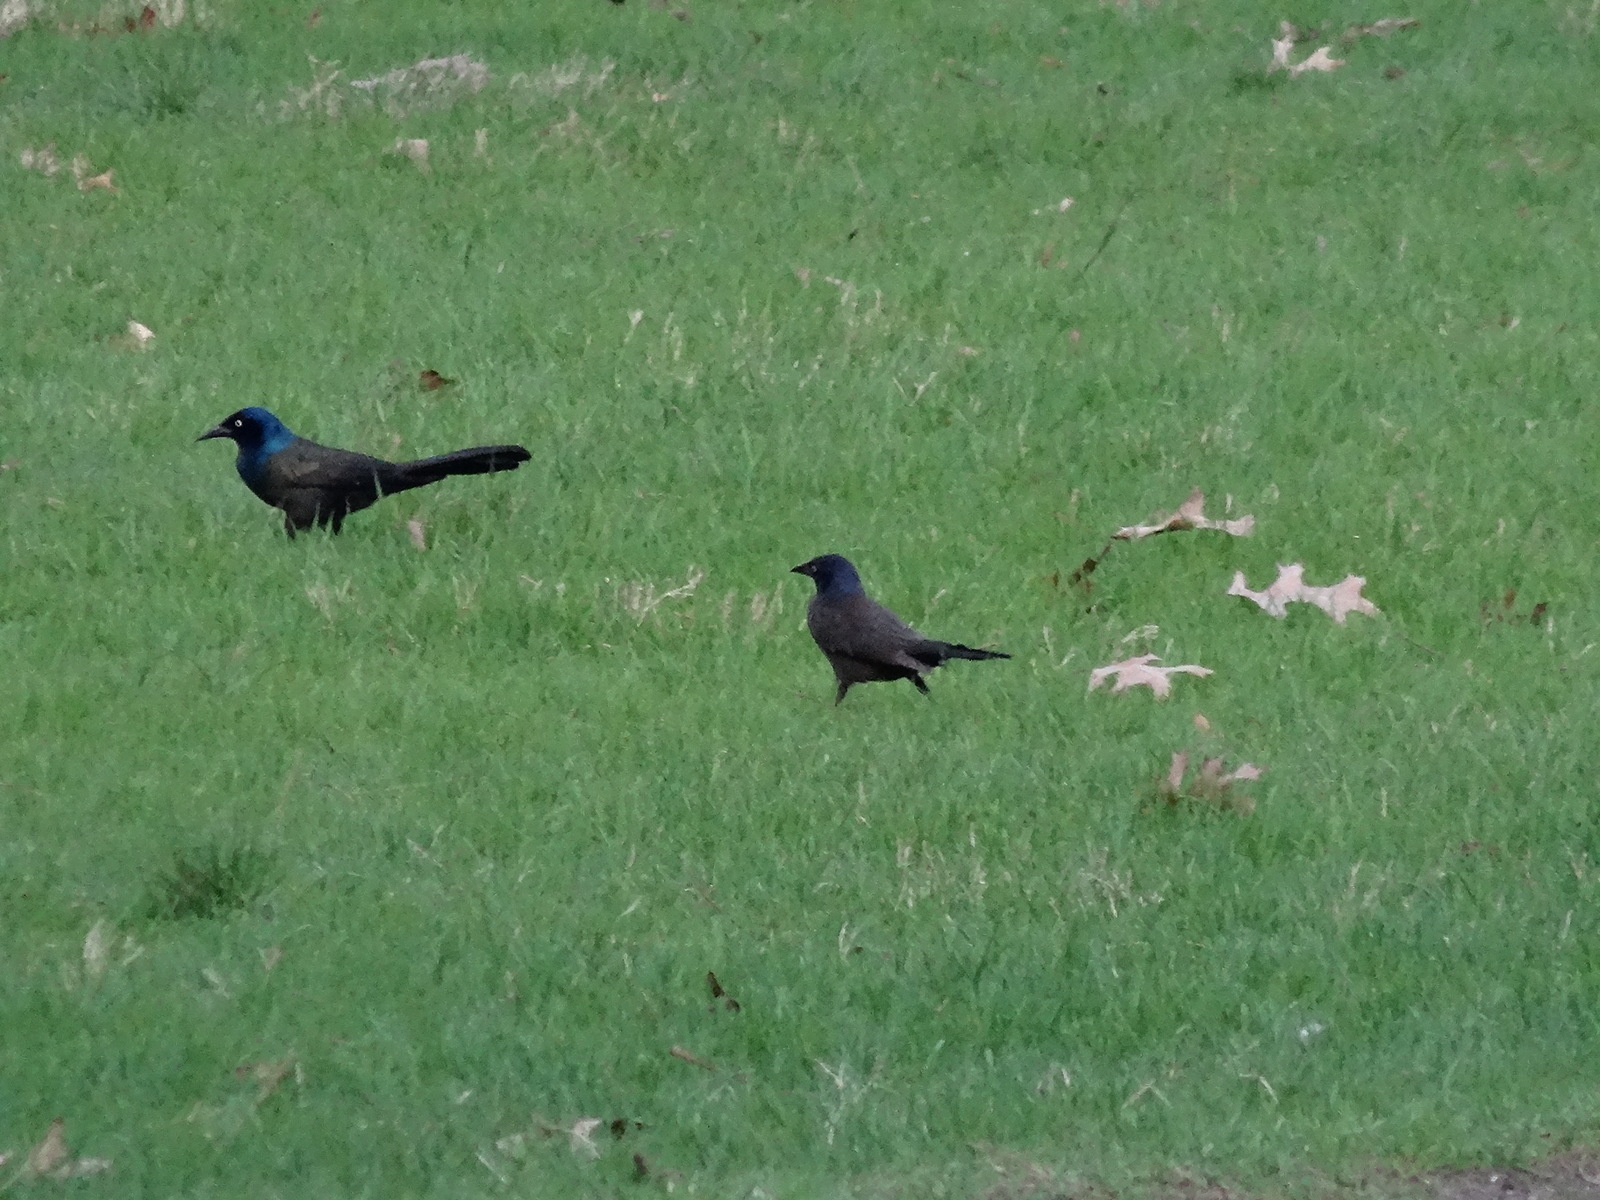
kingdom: Animalia
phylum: Chordata
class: Aves
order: Passeriformes
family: Icteridae
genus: Quiscalus
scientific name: Quiscalus quiscula
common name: Common grackle
